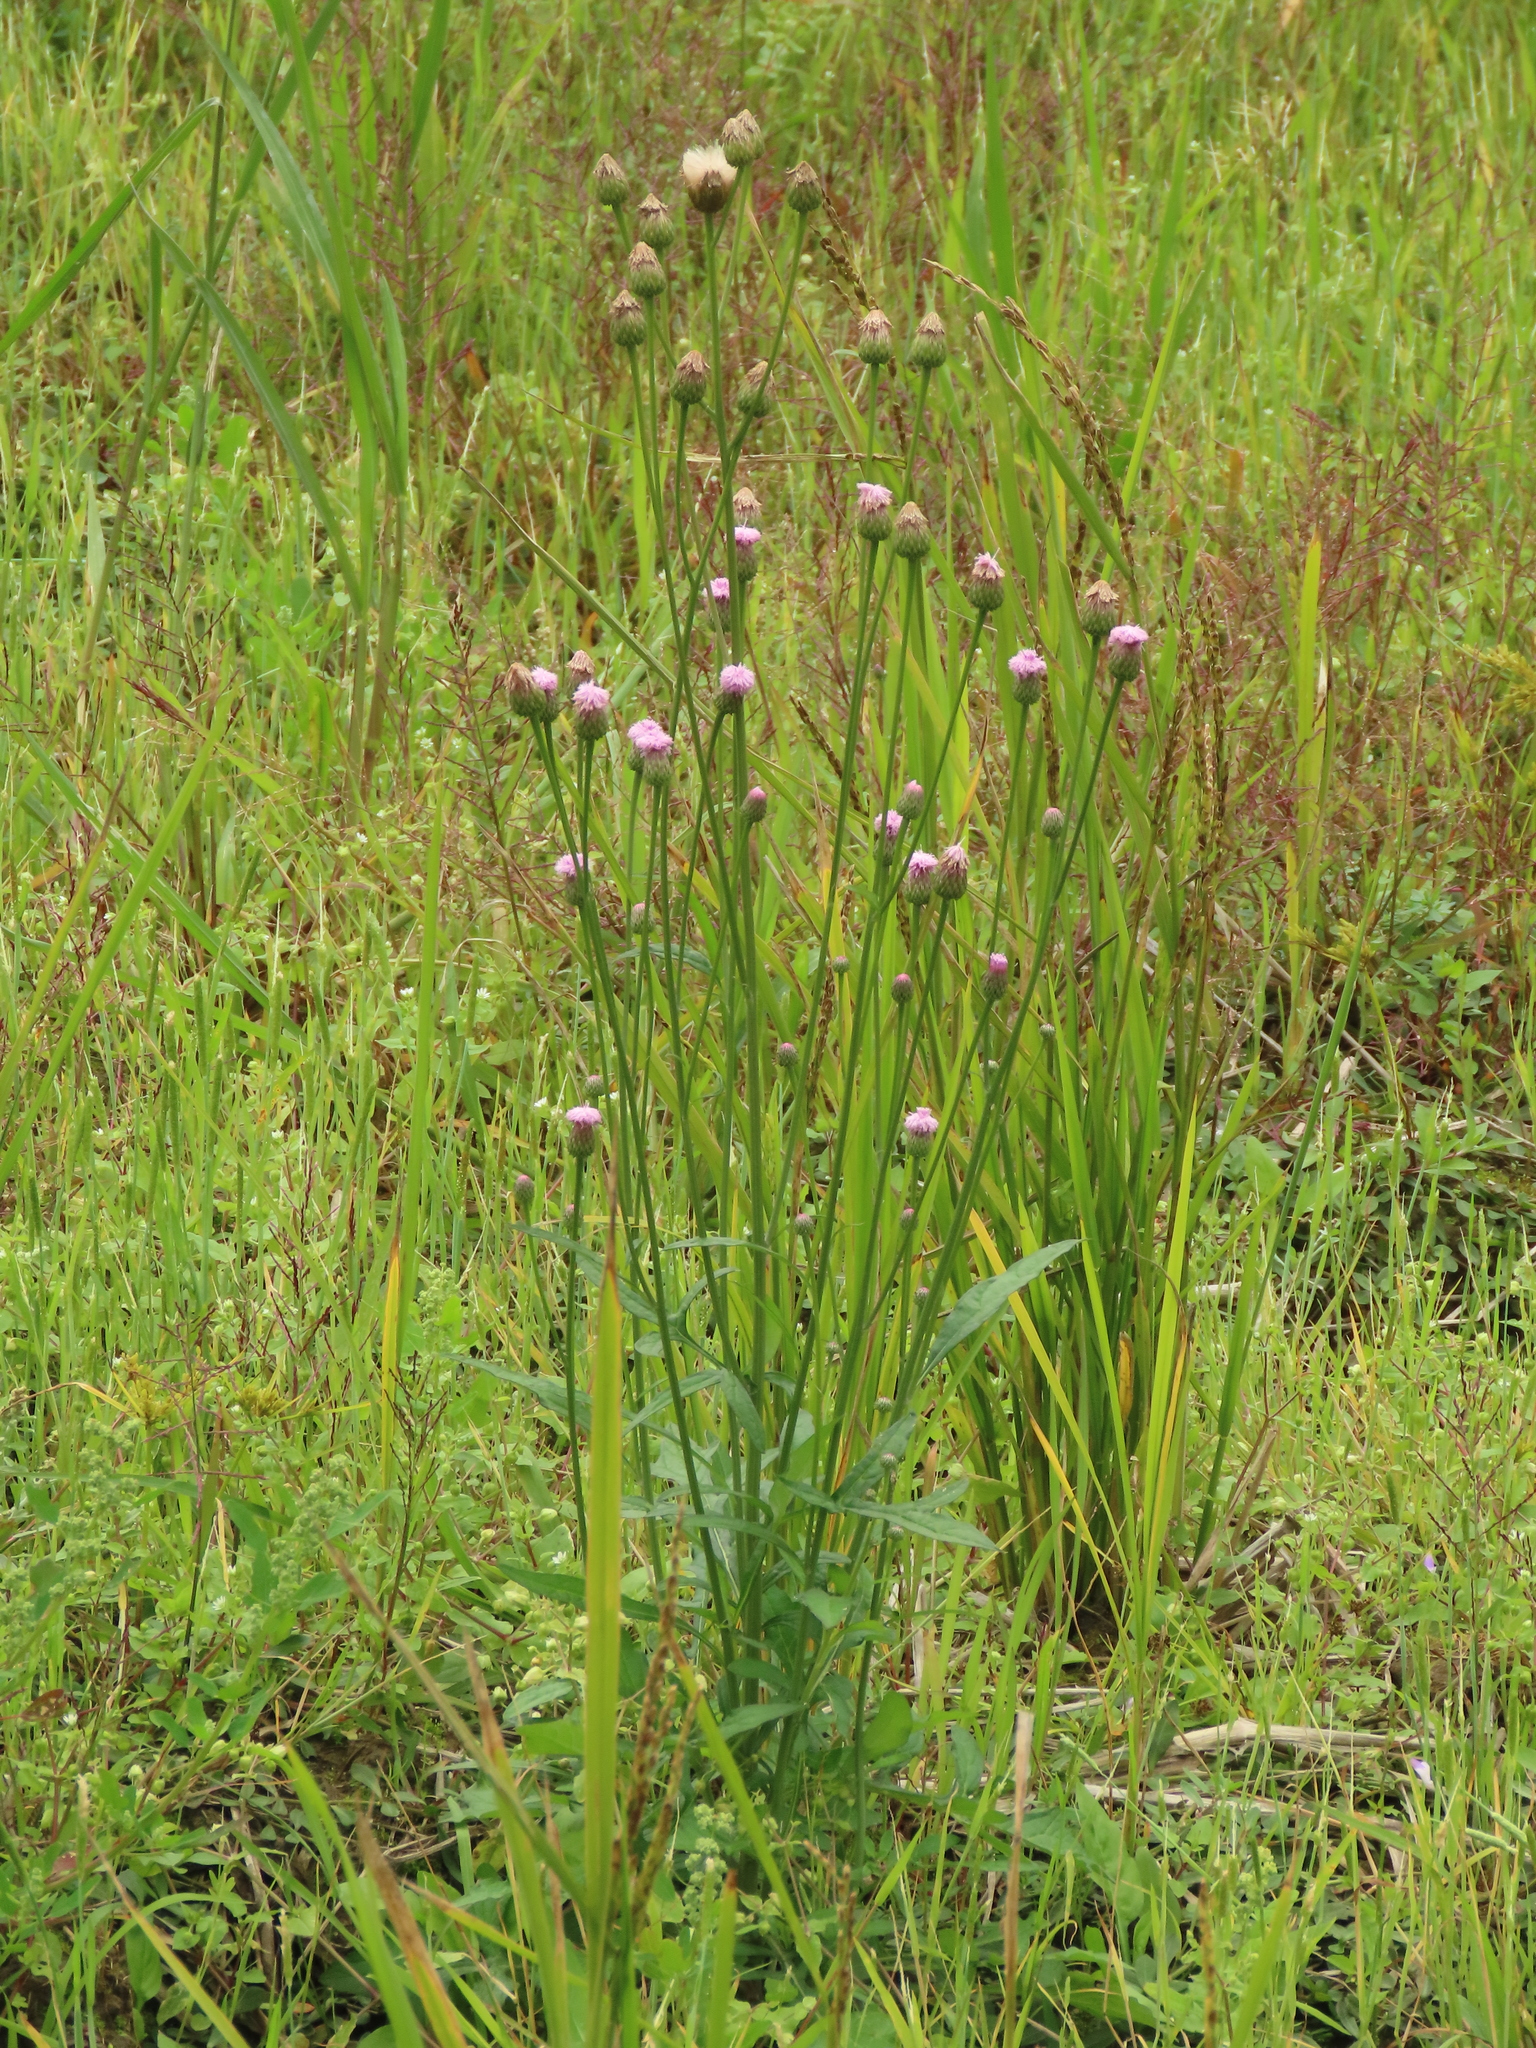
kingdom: Plantae
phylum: Tracheophyta
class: Magnoliopsida
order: Asterales
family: Asteraceae
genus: Saussurea
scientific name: Saussurea lyrata
